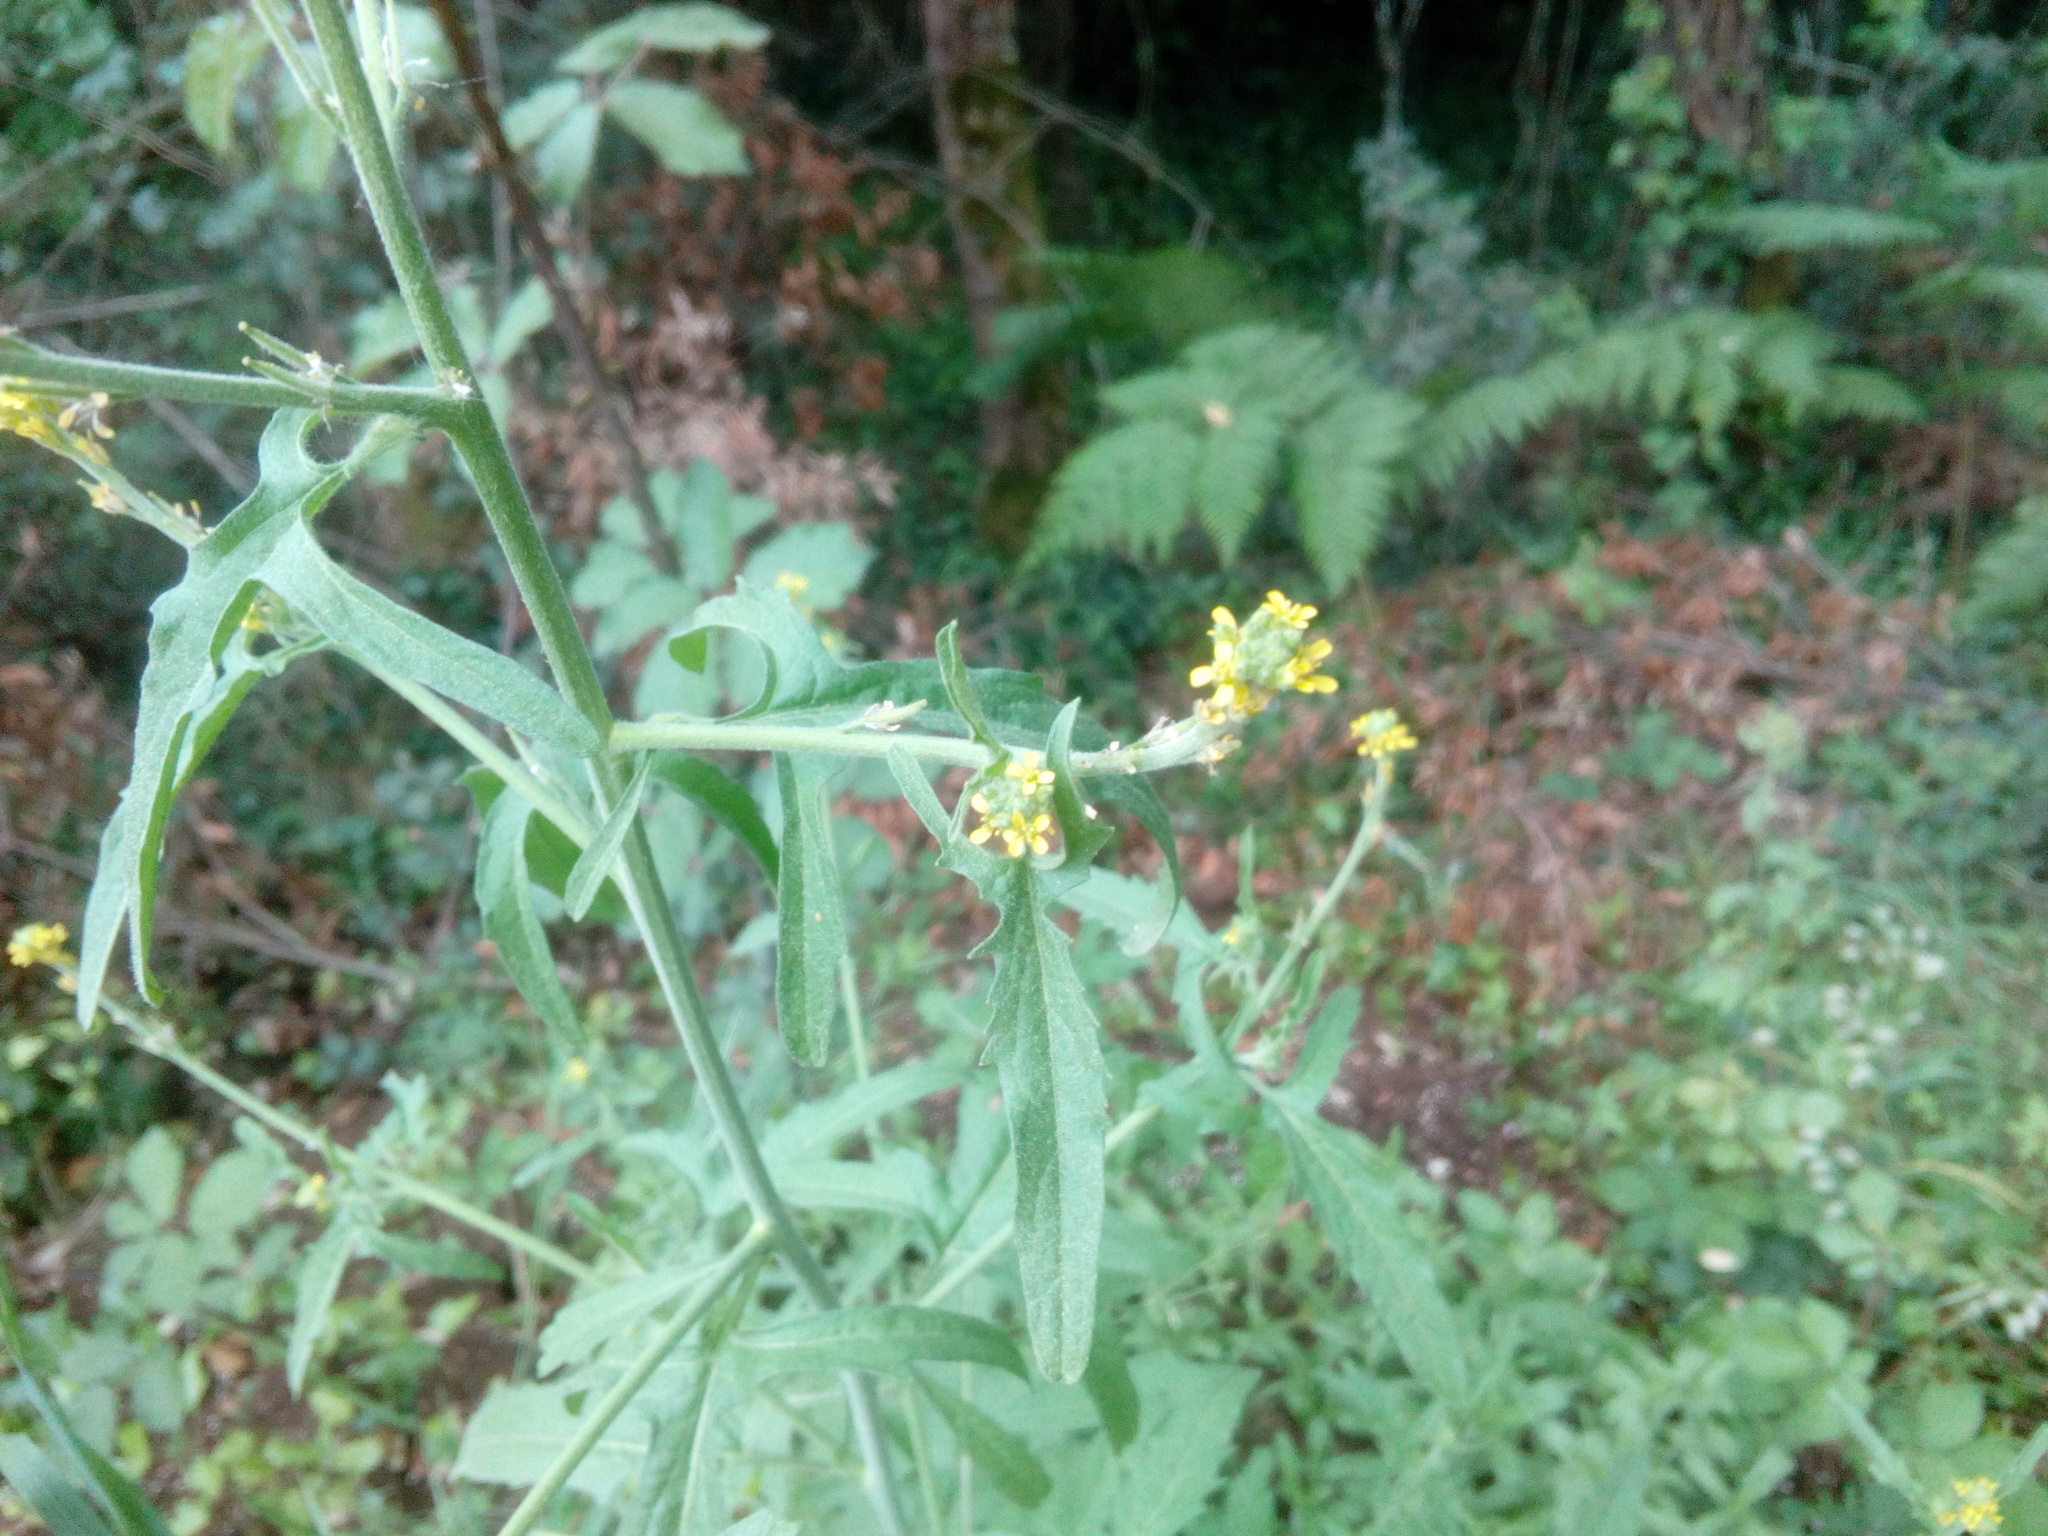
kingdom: Plantae
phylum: Tracheophyta
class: Magnoliopsida
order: Brassicales
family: Brassicaceae
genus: Sisymbrium
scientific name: Sisymbrium officinale
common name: Hedge mustard
